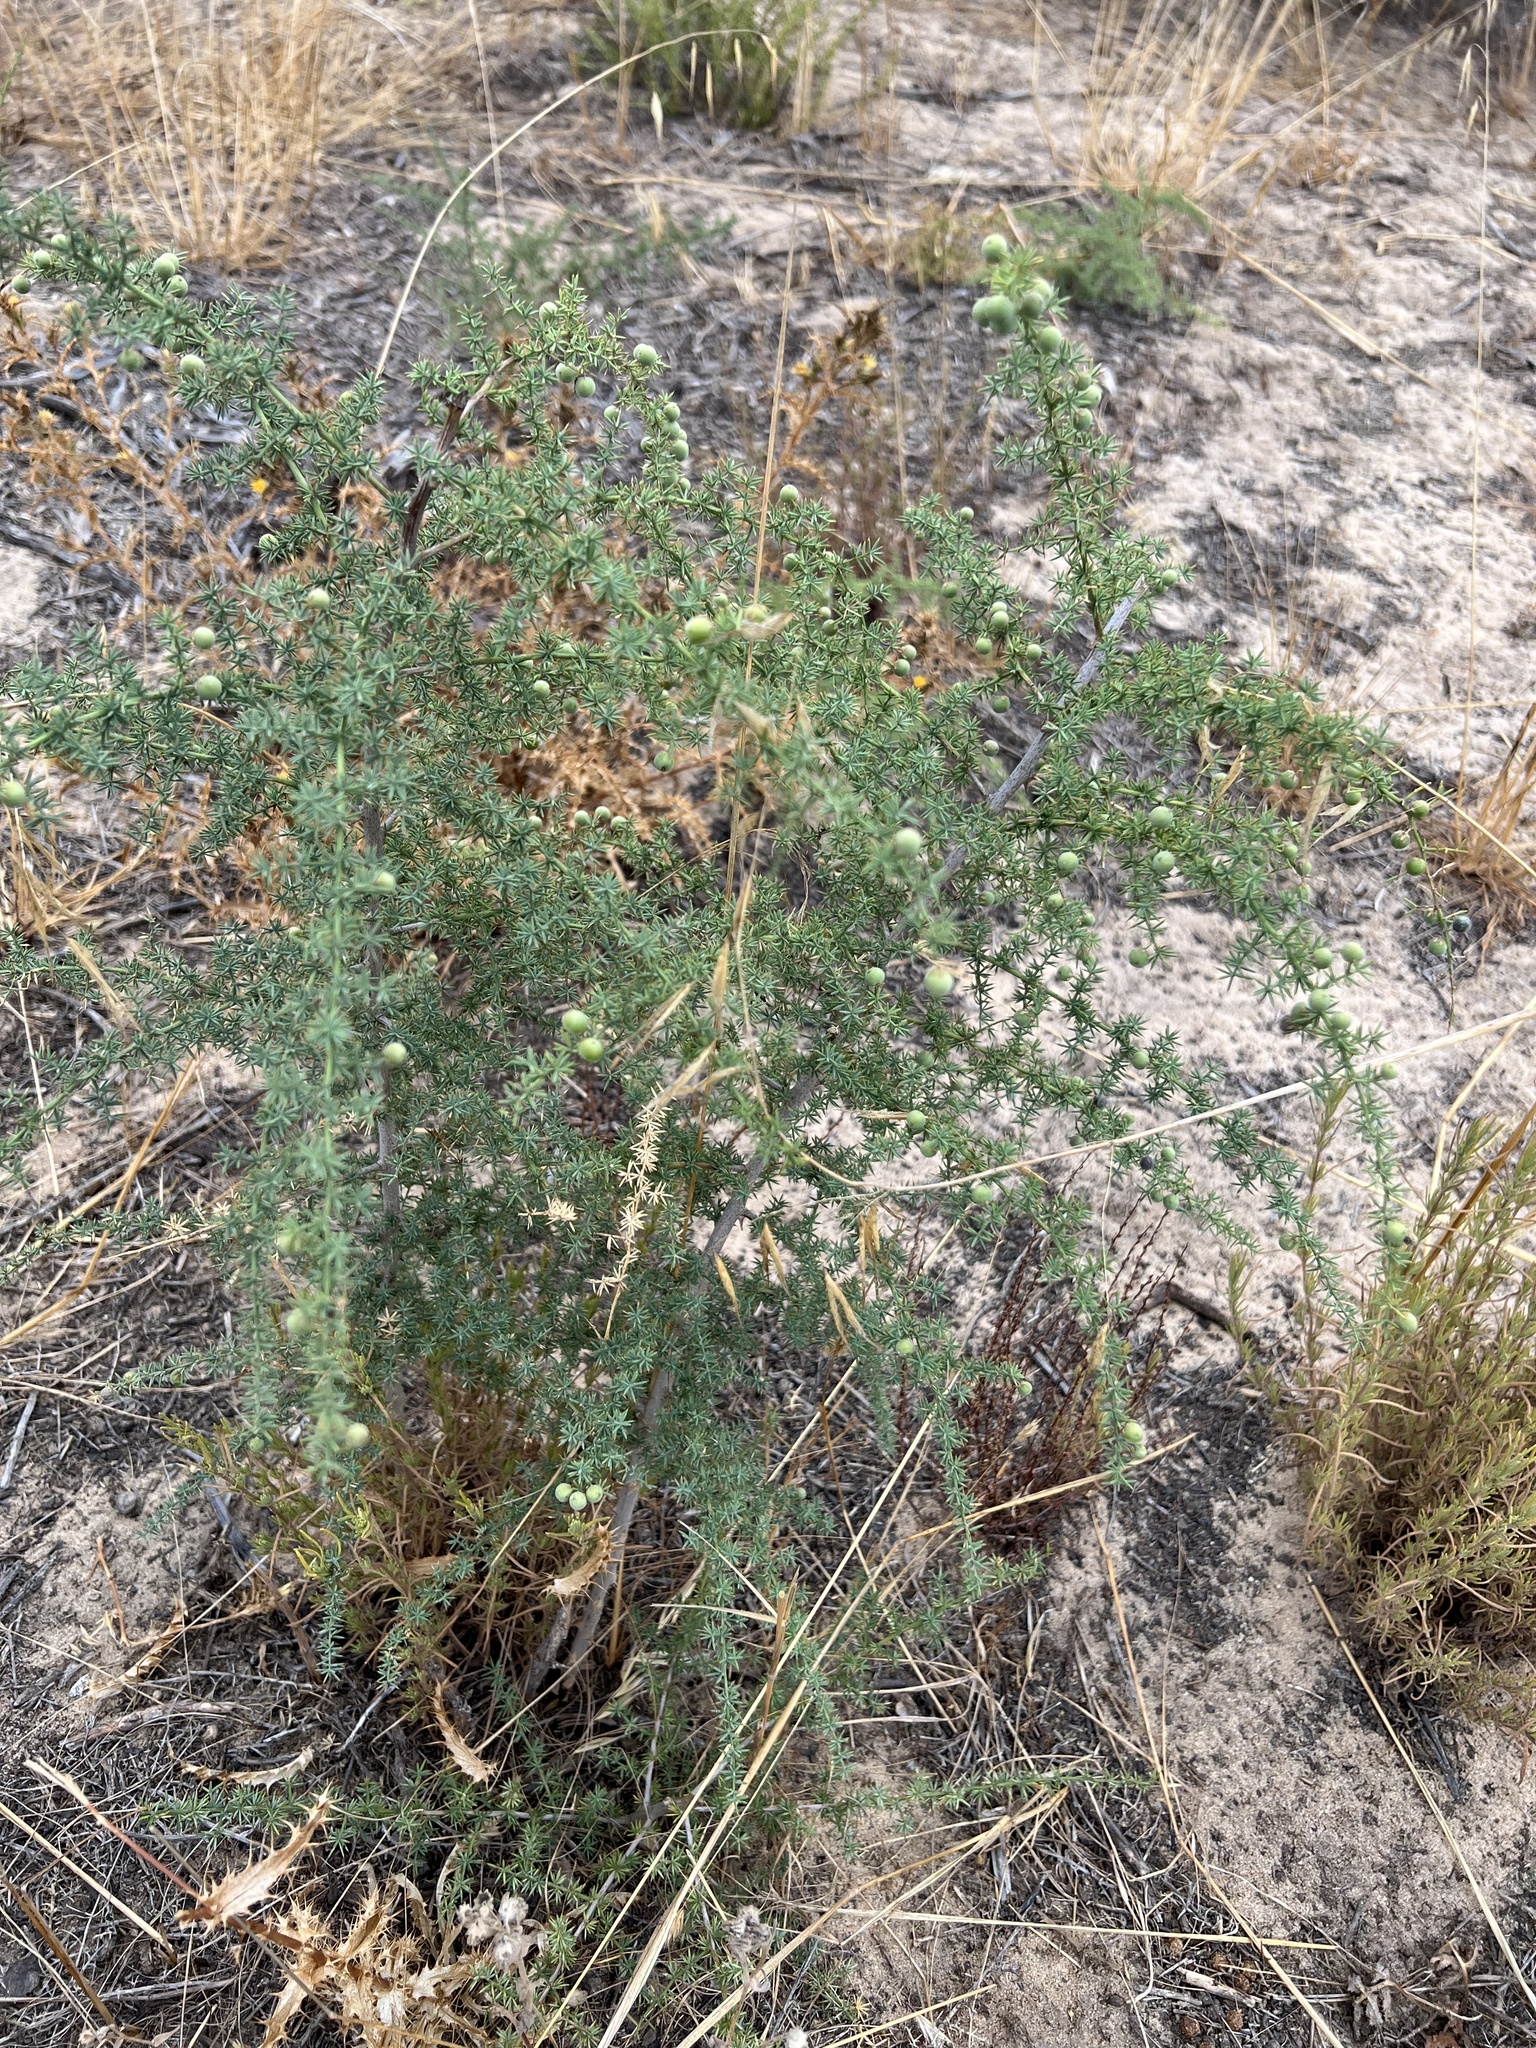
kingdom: Plantae
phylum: Tracheophyta
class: Liliopsida
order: Asparagales
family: Asparagaceae
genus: Asparagus
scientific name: Asparagus acutifolius
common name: Wild asparagus
